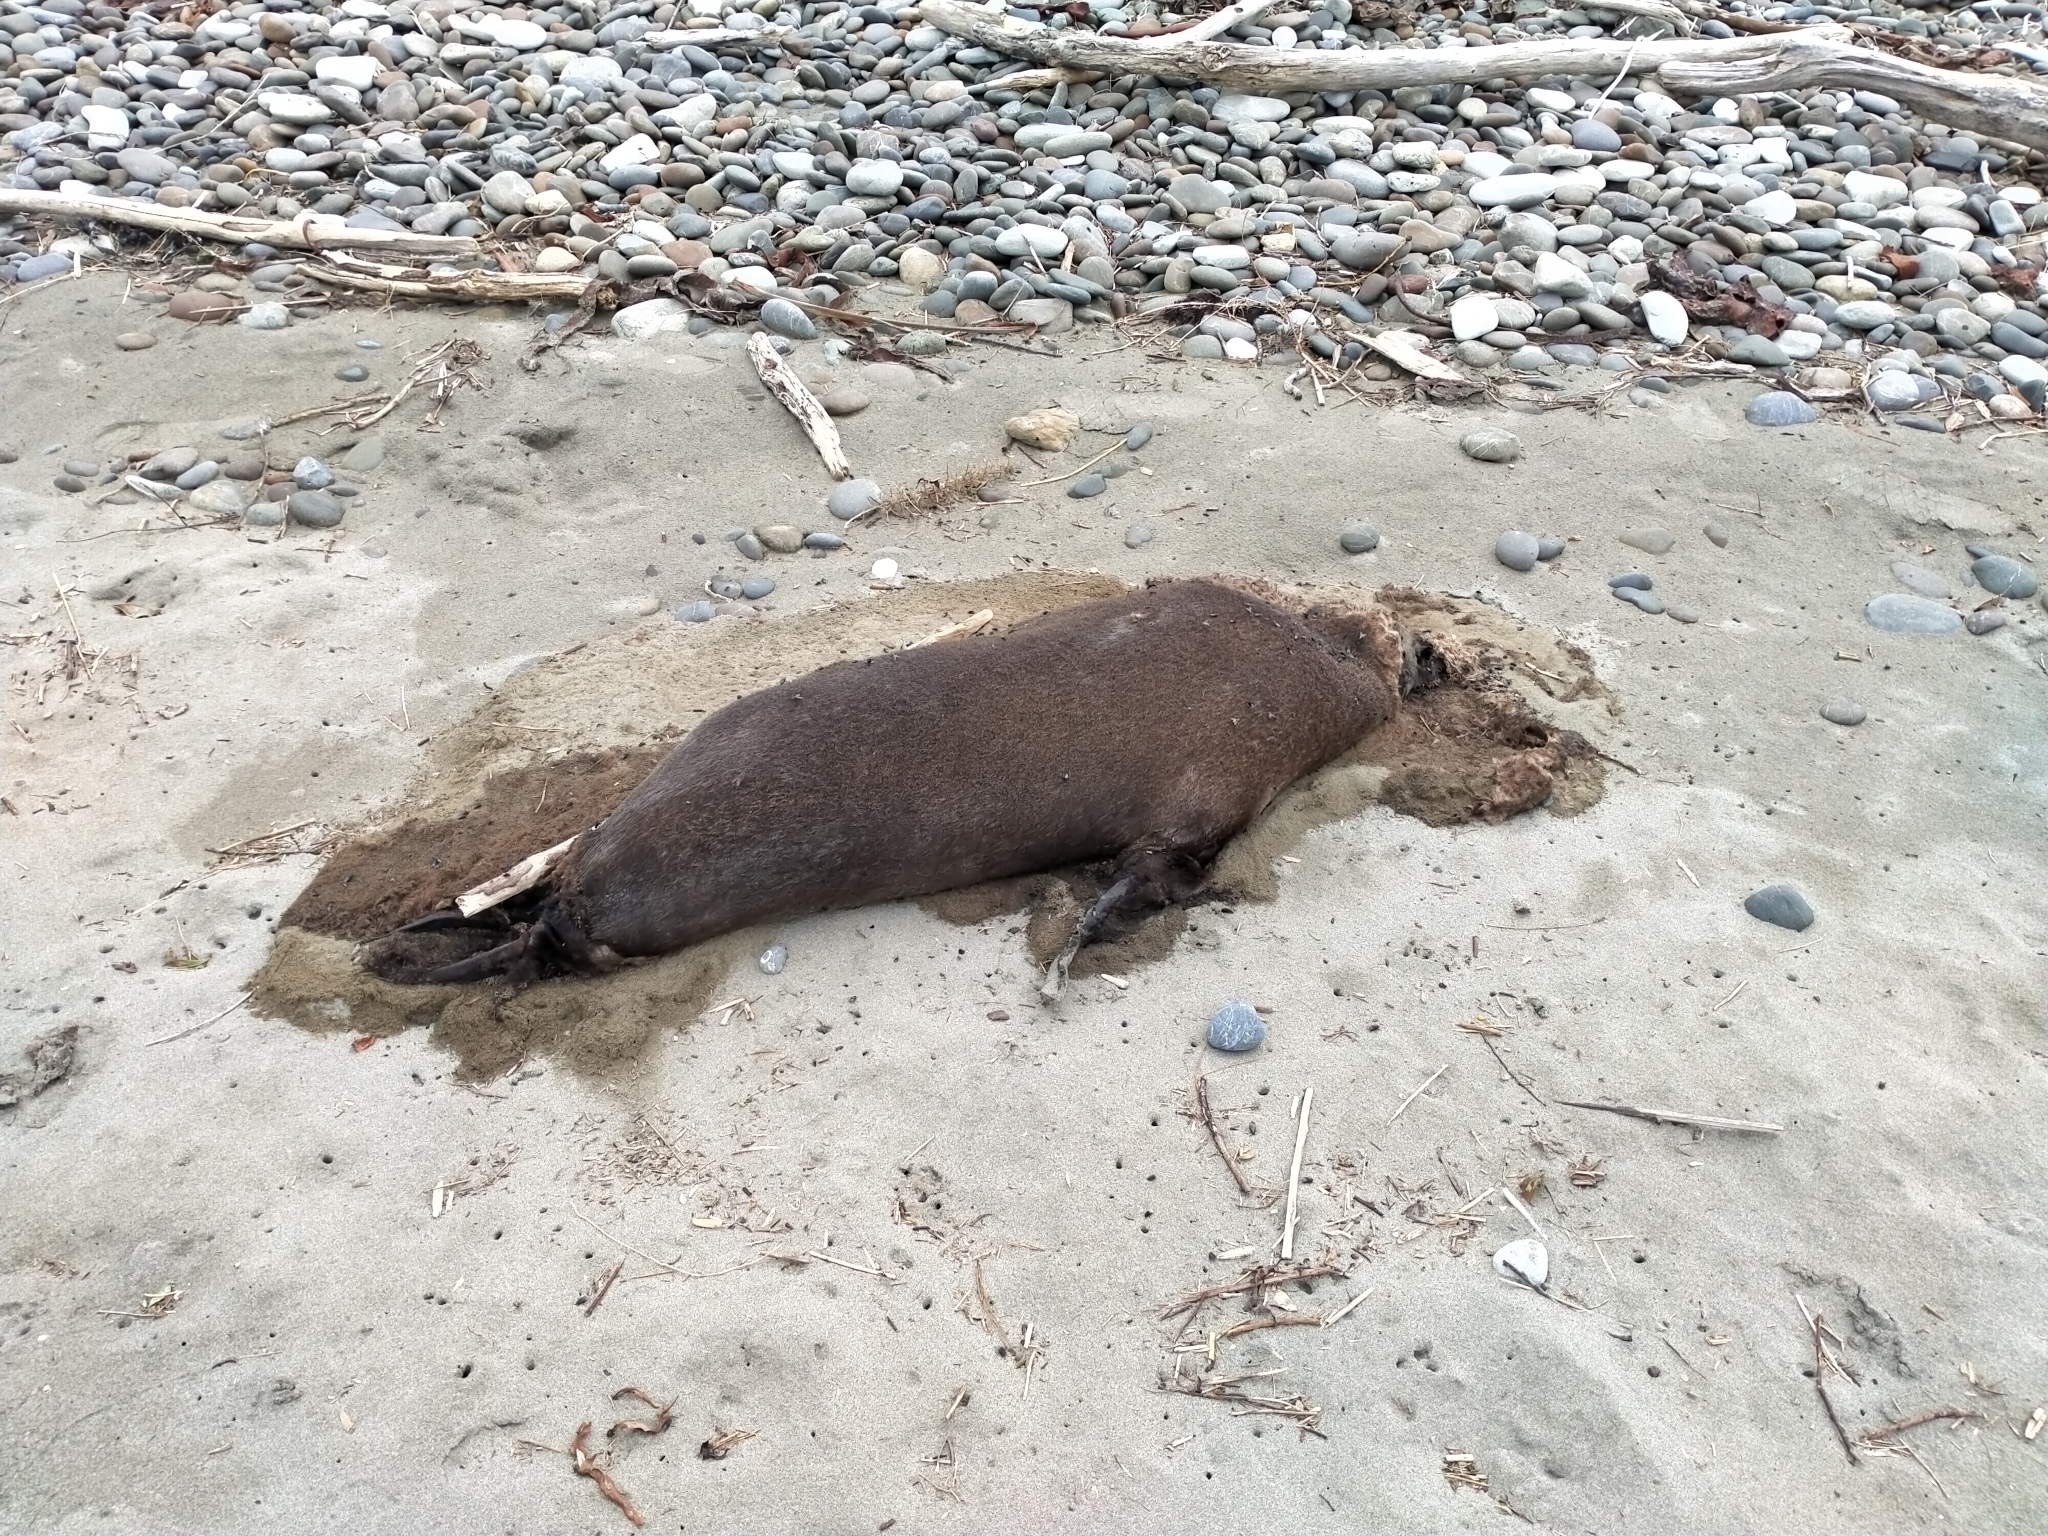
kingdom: Animalia
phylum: Chordata
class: Mammalia
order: Carnivora
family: Otariidae
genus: Arctocephalus
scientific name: Arctocephalus forsteri
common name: New zealand fur seal
